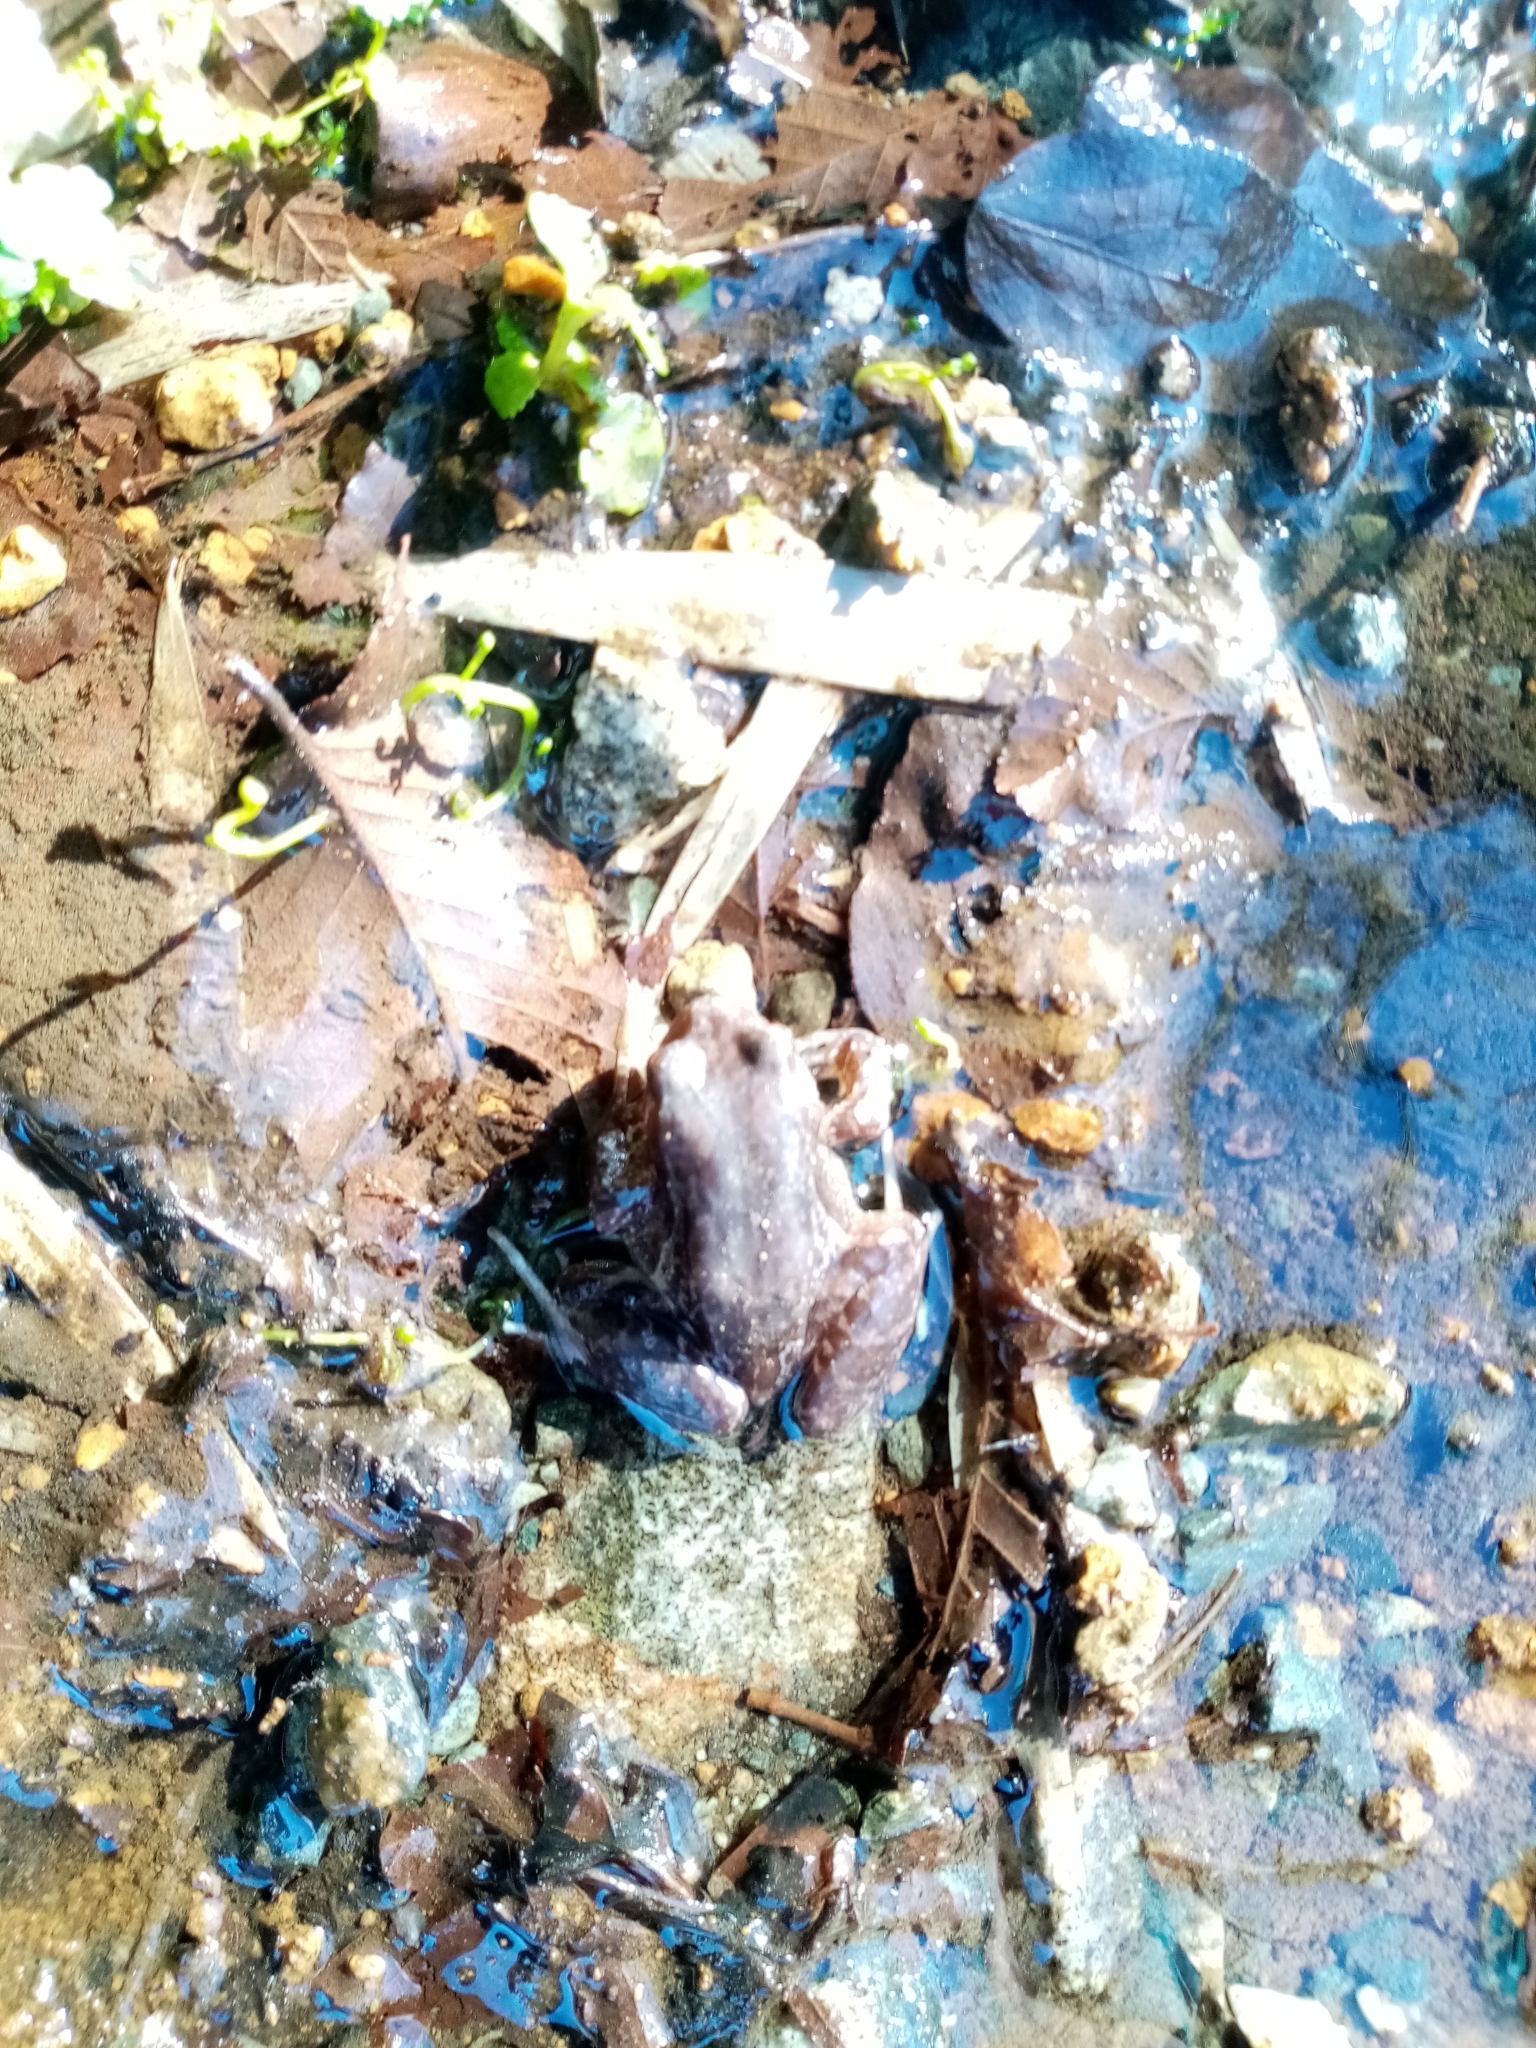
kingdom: Animalia
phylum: Chordata
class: Amphibia
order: Anura
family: Alsodidae
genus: Eupsophus
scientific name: Eupsophus roseus
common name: Rosy ground frog
